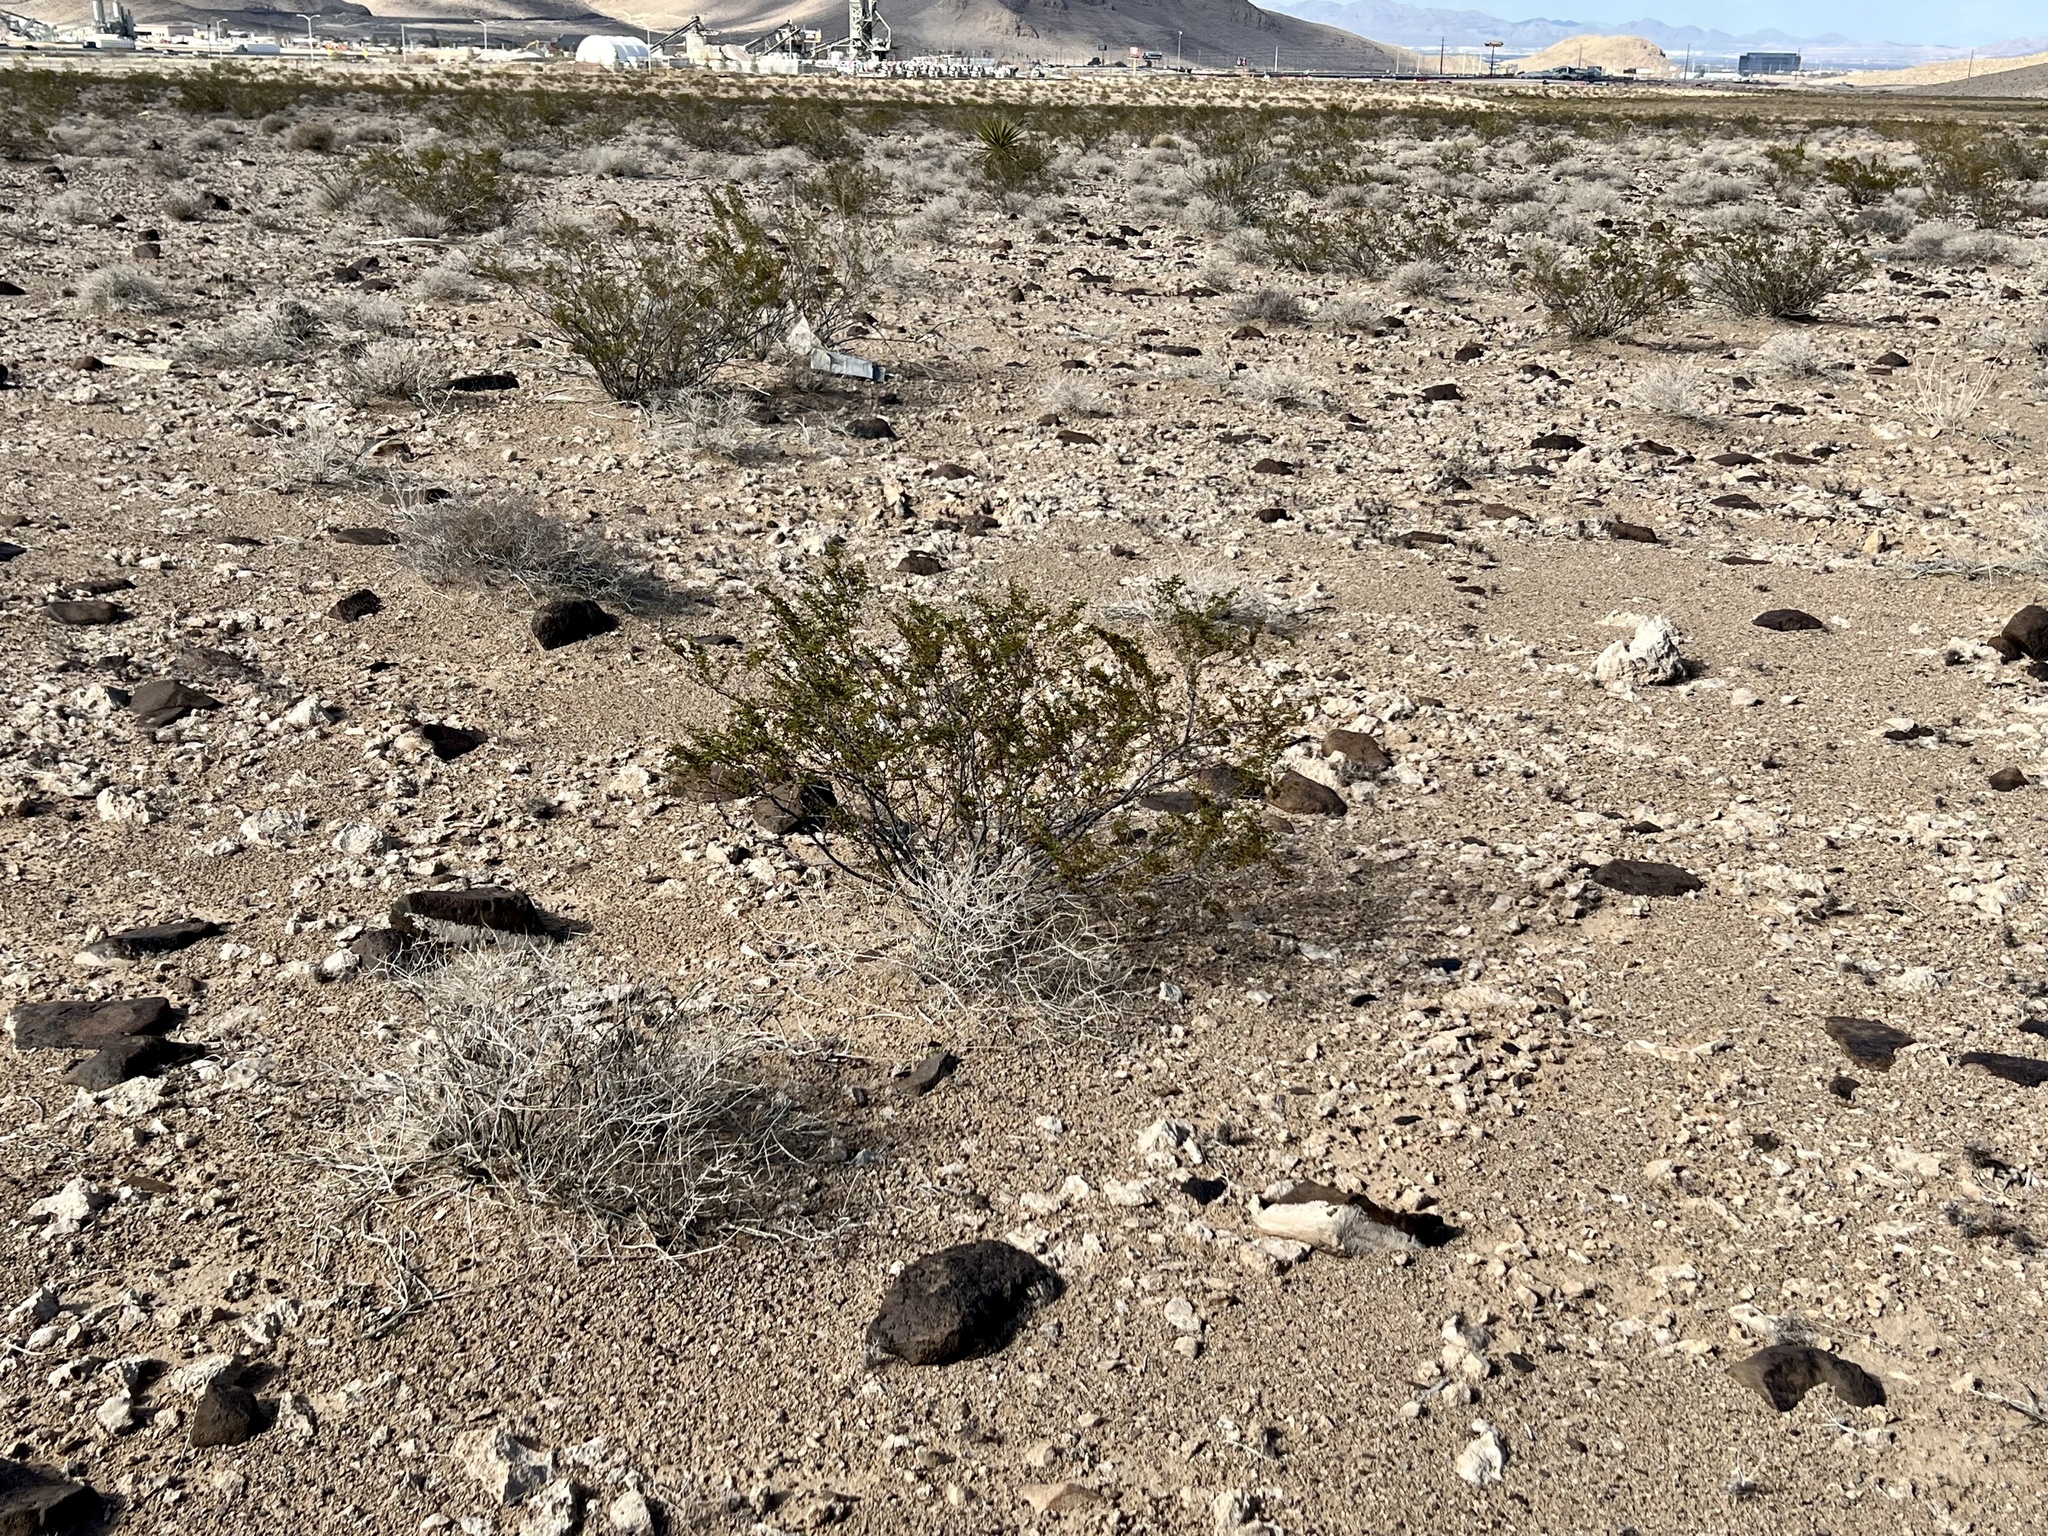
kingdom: Plantae
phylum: Tracheophyta
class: Magnoliopsida
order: Zygophyllales
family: Zygophyllaceae
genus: Larrea
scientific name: Larrea tridentata
